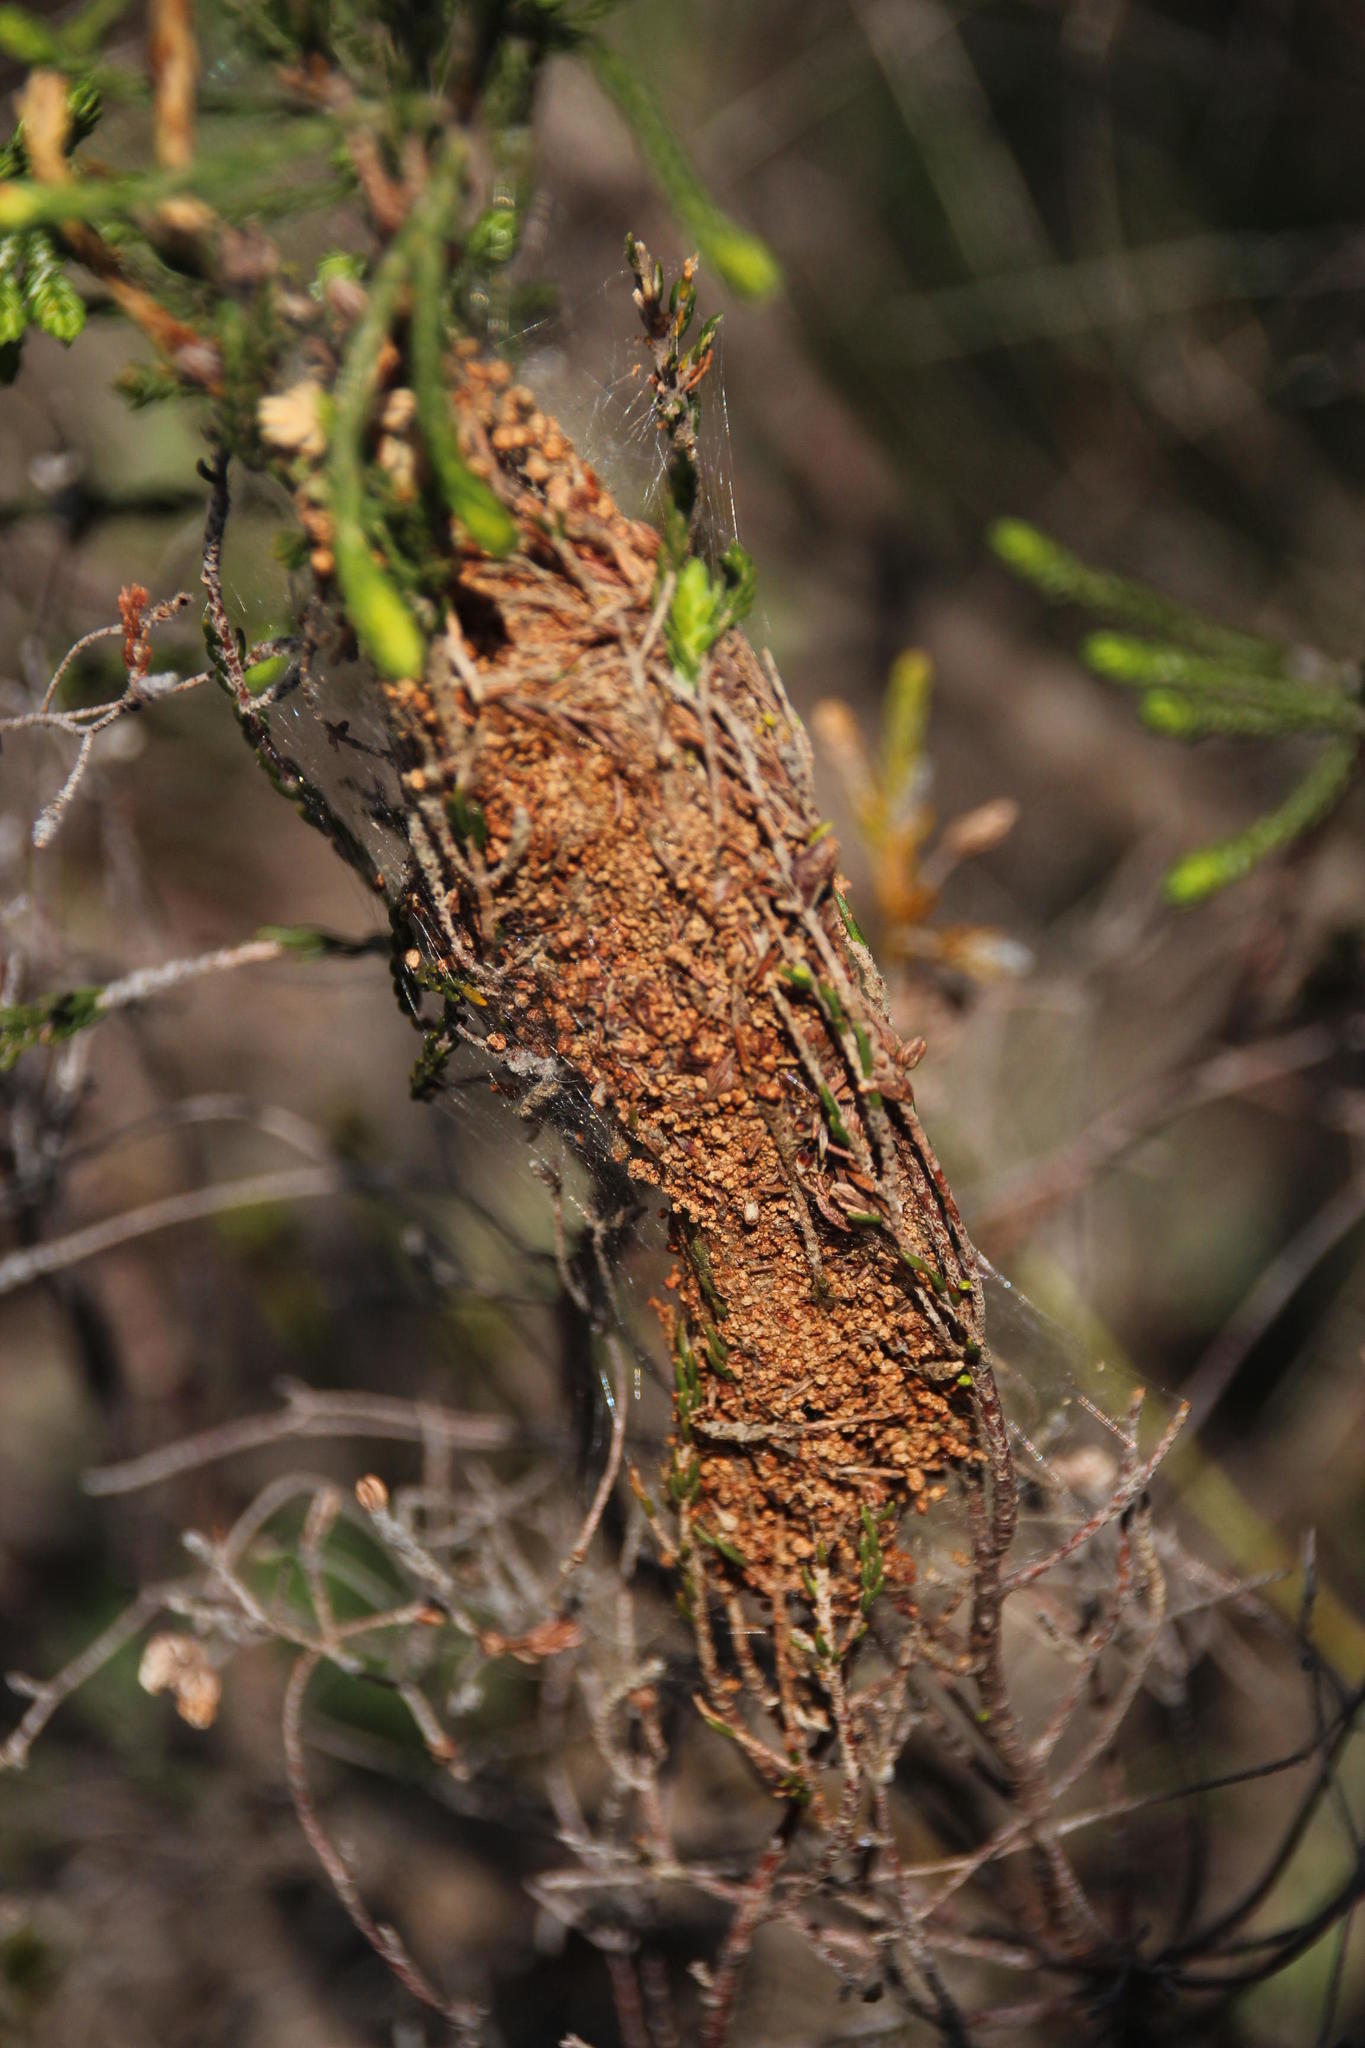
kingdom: Plantae
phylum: Tracheophyta
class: Magnoliopsida
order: Malvales
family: Thymelaeaceae
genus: Passerina
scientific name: Passerina corymbosa
